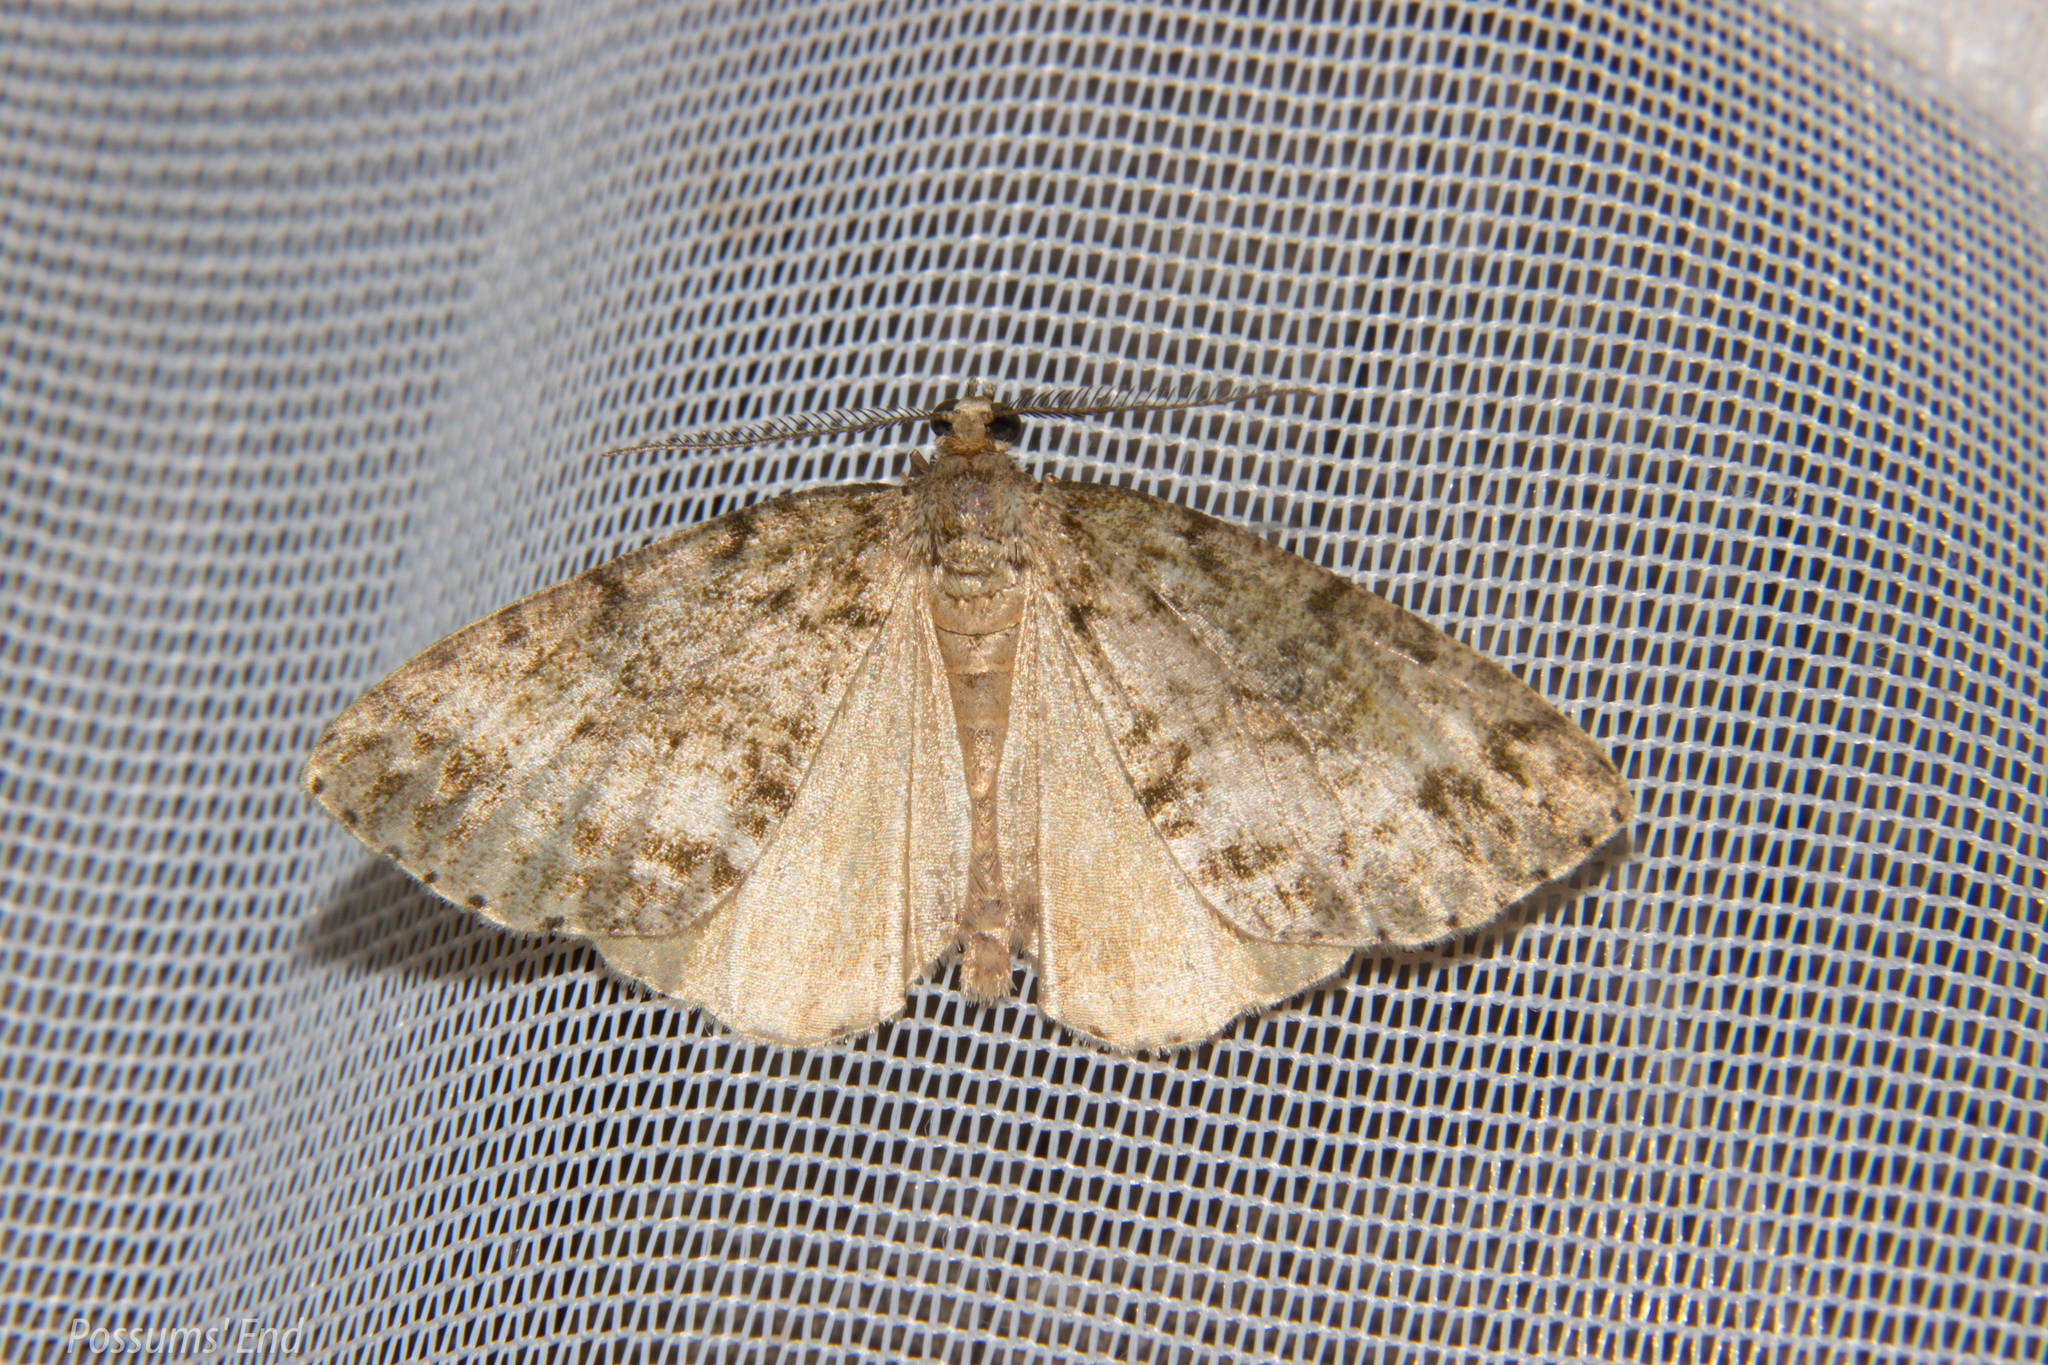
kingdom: Animalia
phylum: Arthropoda
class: Insecta
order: Lepidoptera
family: Geometridae
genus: Pseudocoremia
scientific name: Pseudocoremia indistincta
